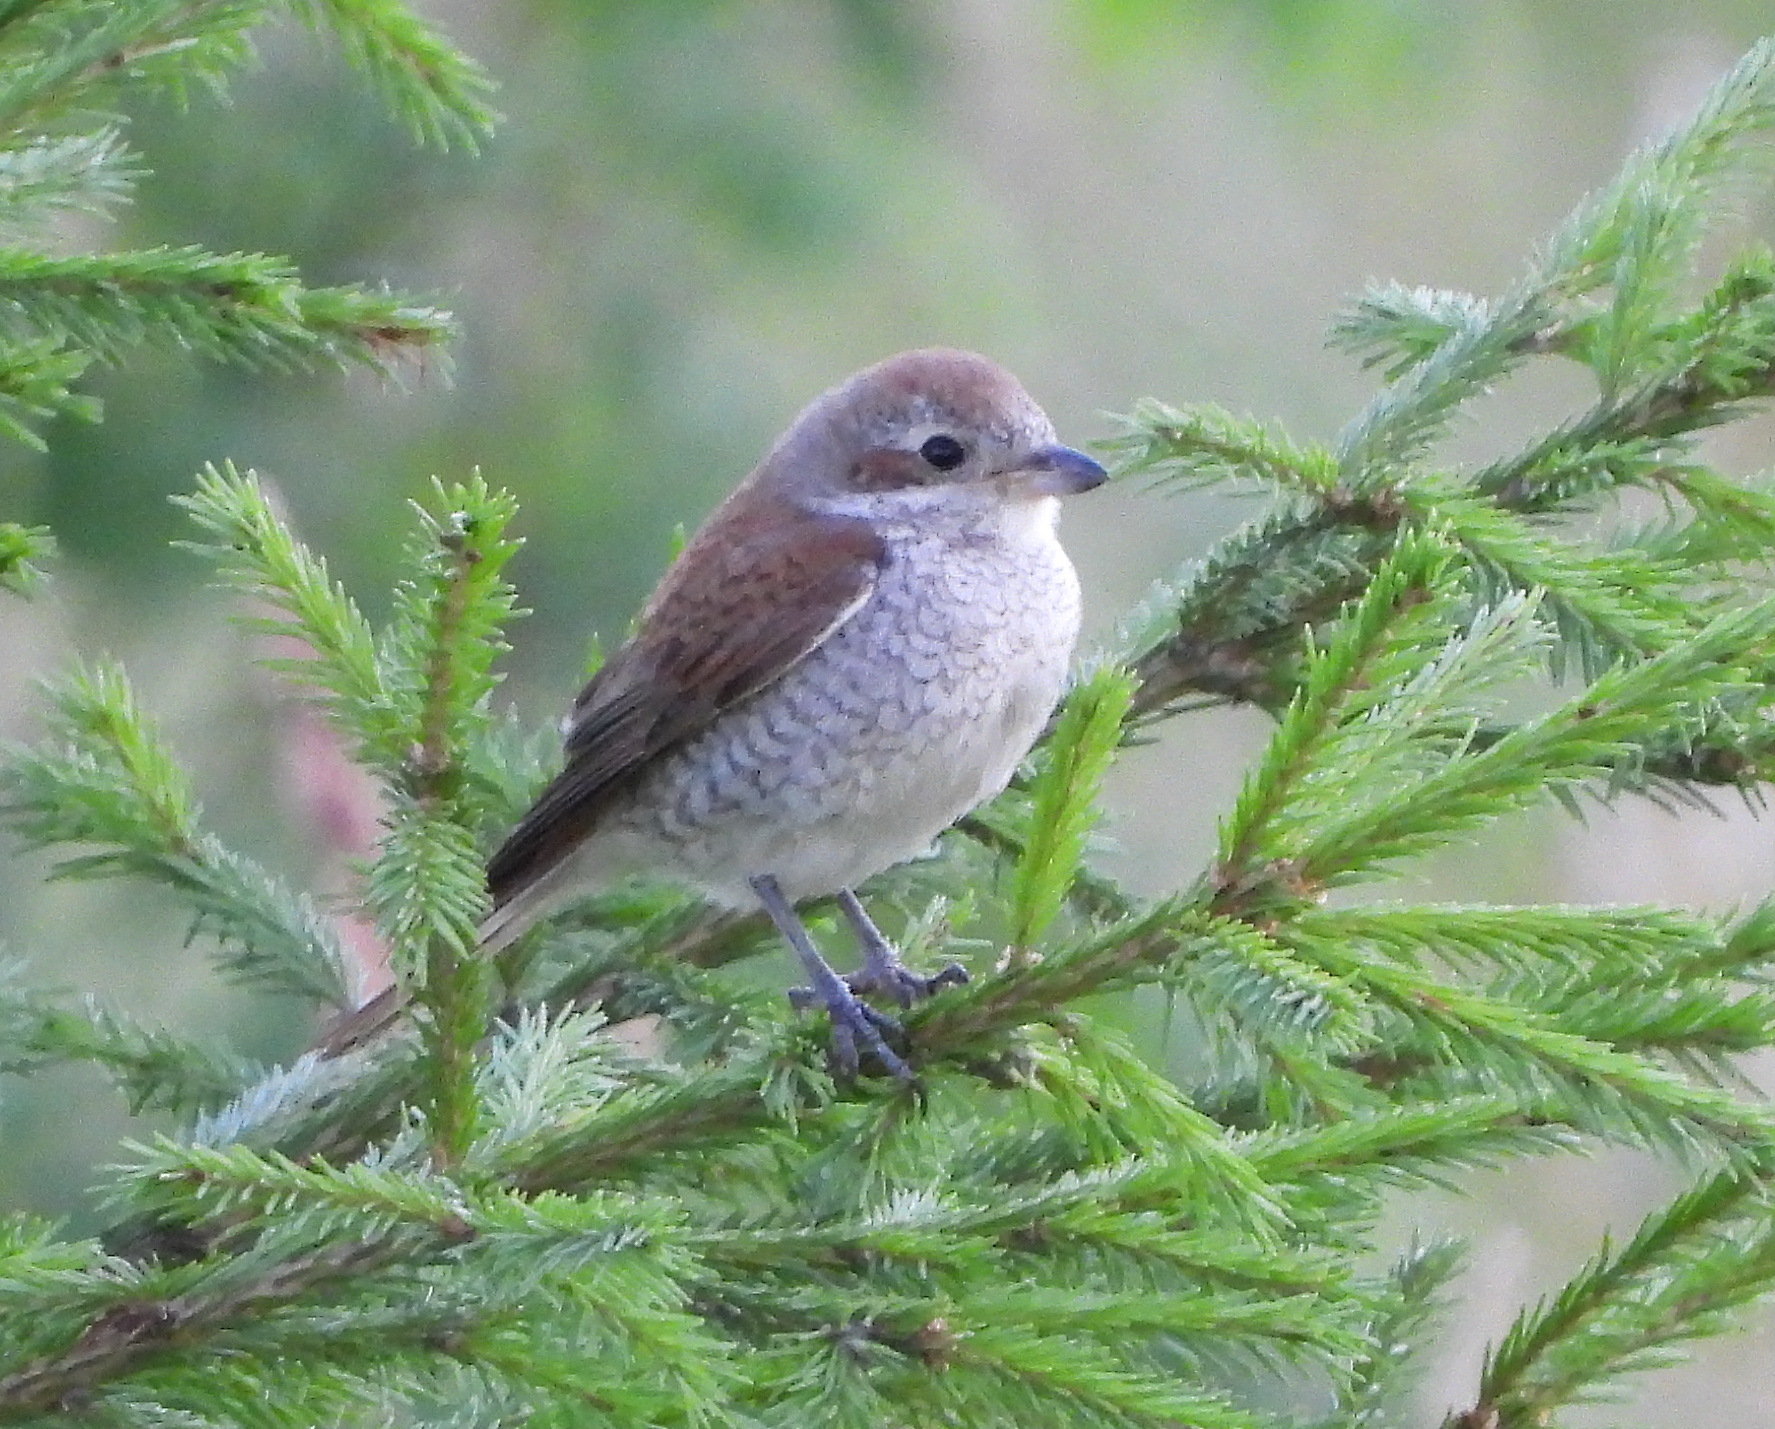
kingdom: Animalia
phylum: Chordata
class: Aves
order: Passeriformes
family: Laniidae
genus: Lanius
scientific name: Lanius collurio
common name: Red-backed shrike
